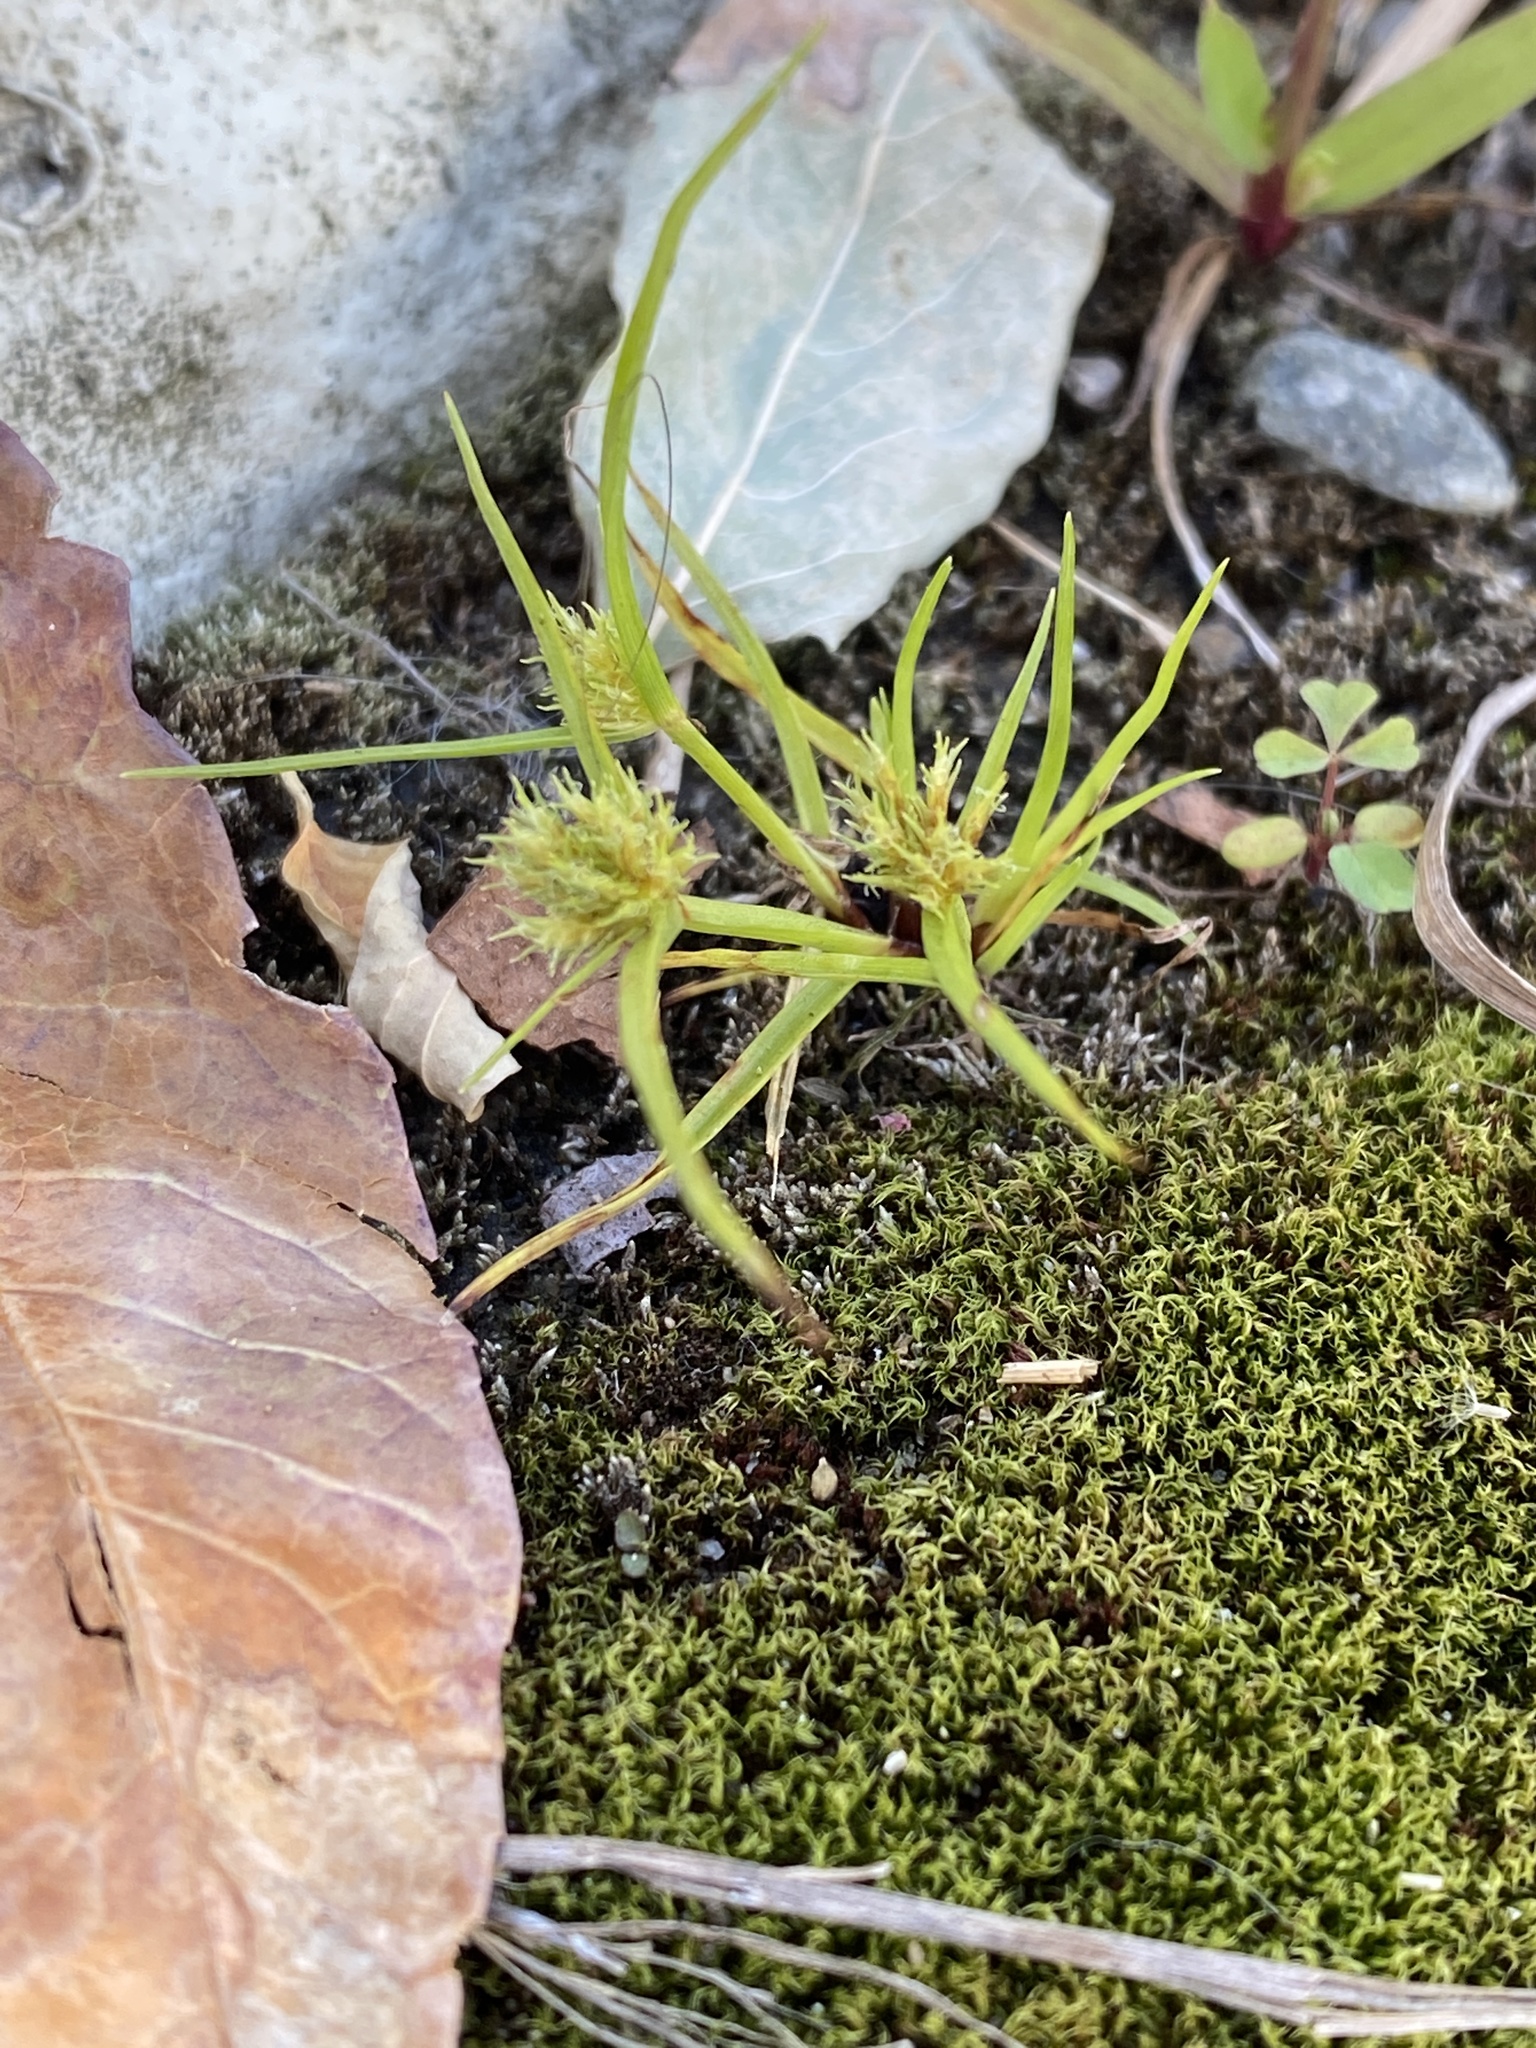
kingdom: Plantae
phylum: Tracheophyta
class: Liliopsida
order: Poales
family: Cyperaceae
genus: Cyperus
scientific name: Cyperus squarrosus
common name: Awned cyperus
